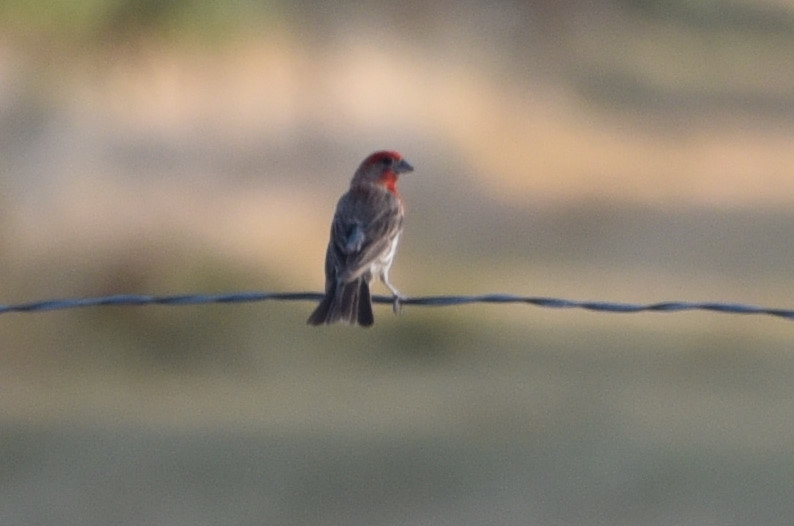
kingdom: Animalia
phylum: Chordata
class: Aves
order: Passeriformes
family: Fringillidae
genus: Haemorhous
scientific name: Haemorhous mexicanus
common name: House finch
